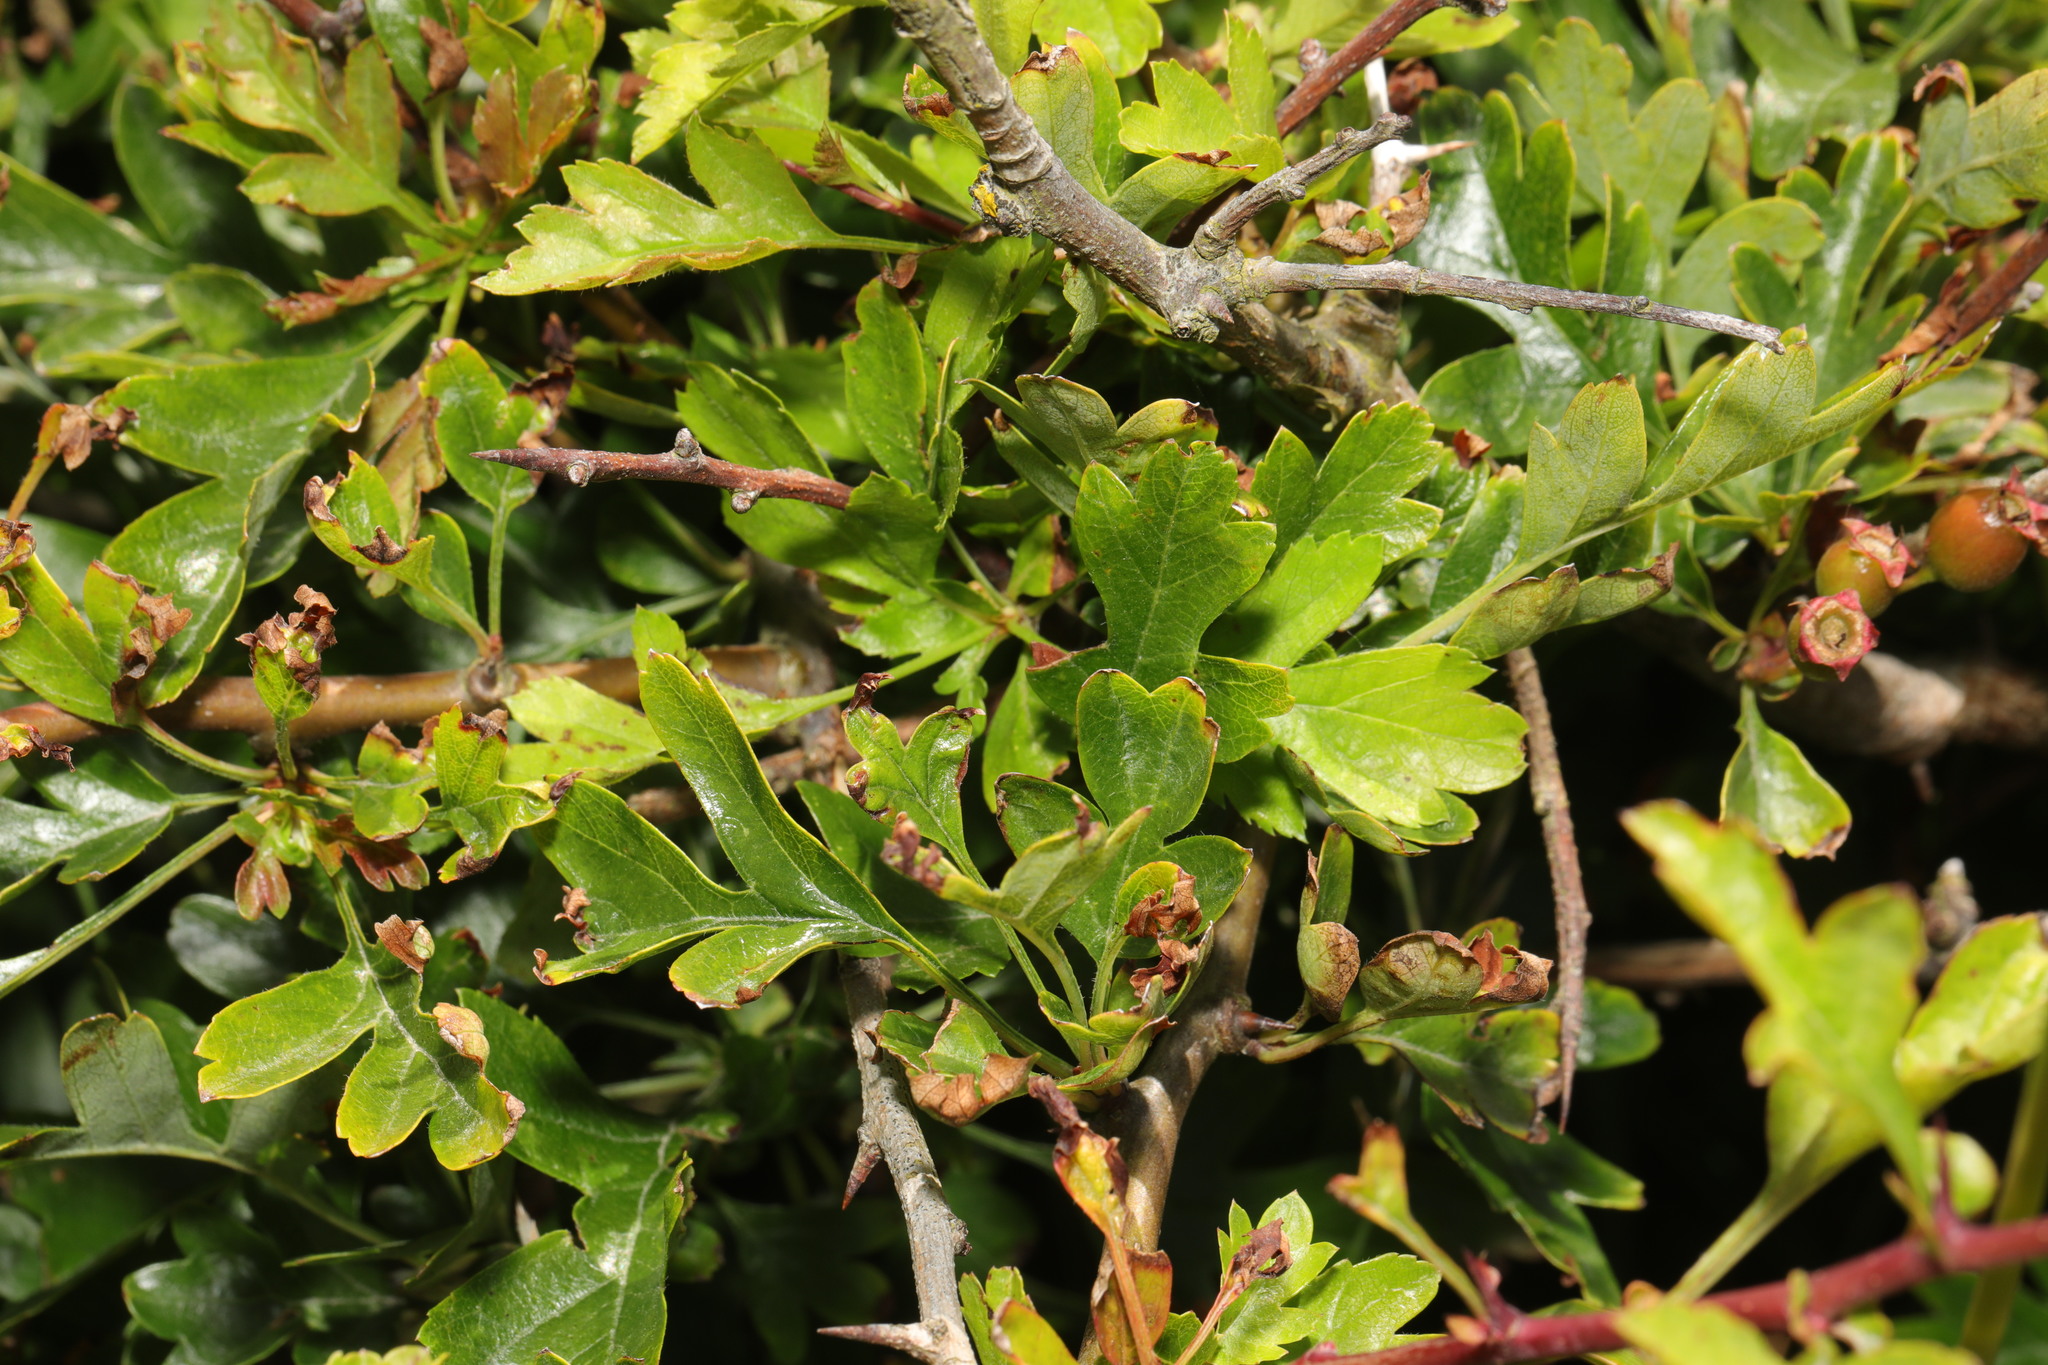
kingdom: Plantae
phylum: Tracheophyta
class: Magnoliopsida
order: Rosales
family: Rosaceae
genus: Crataegus
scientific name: Crataegus monogyna
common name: Hawthorn
